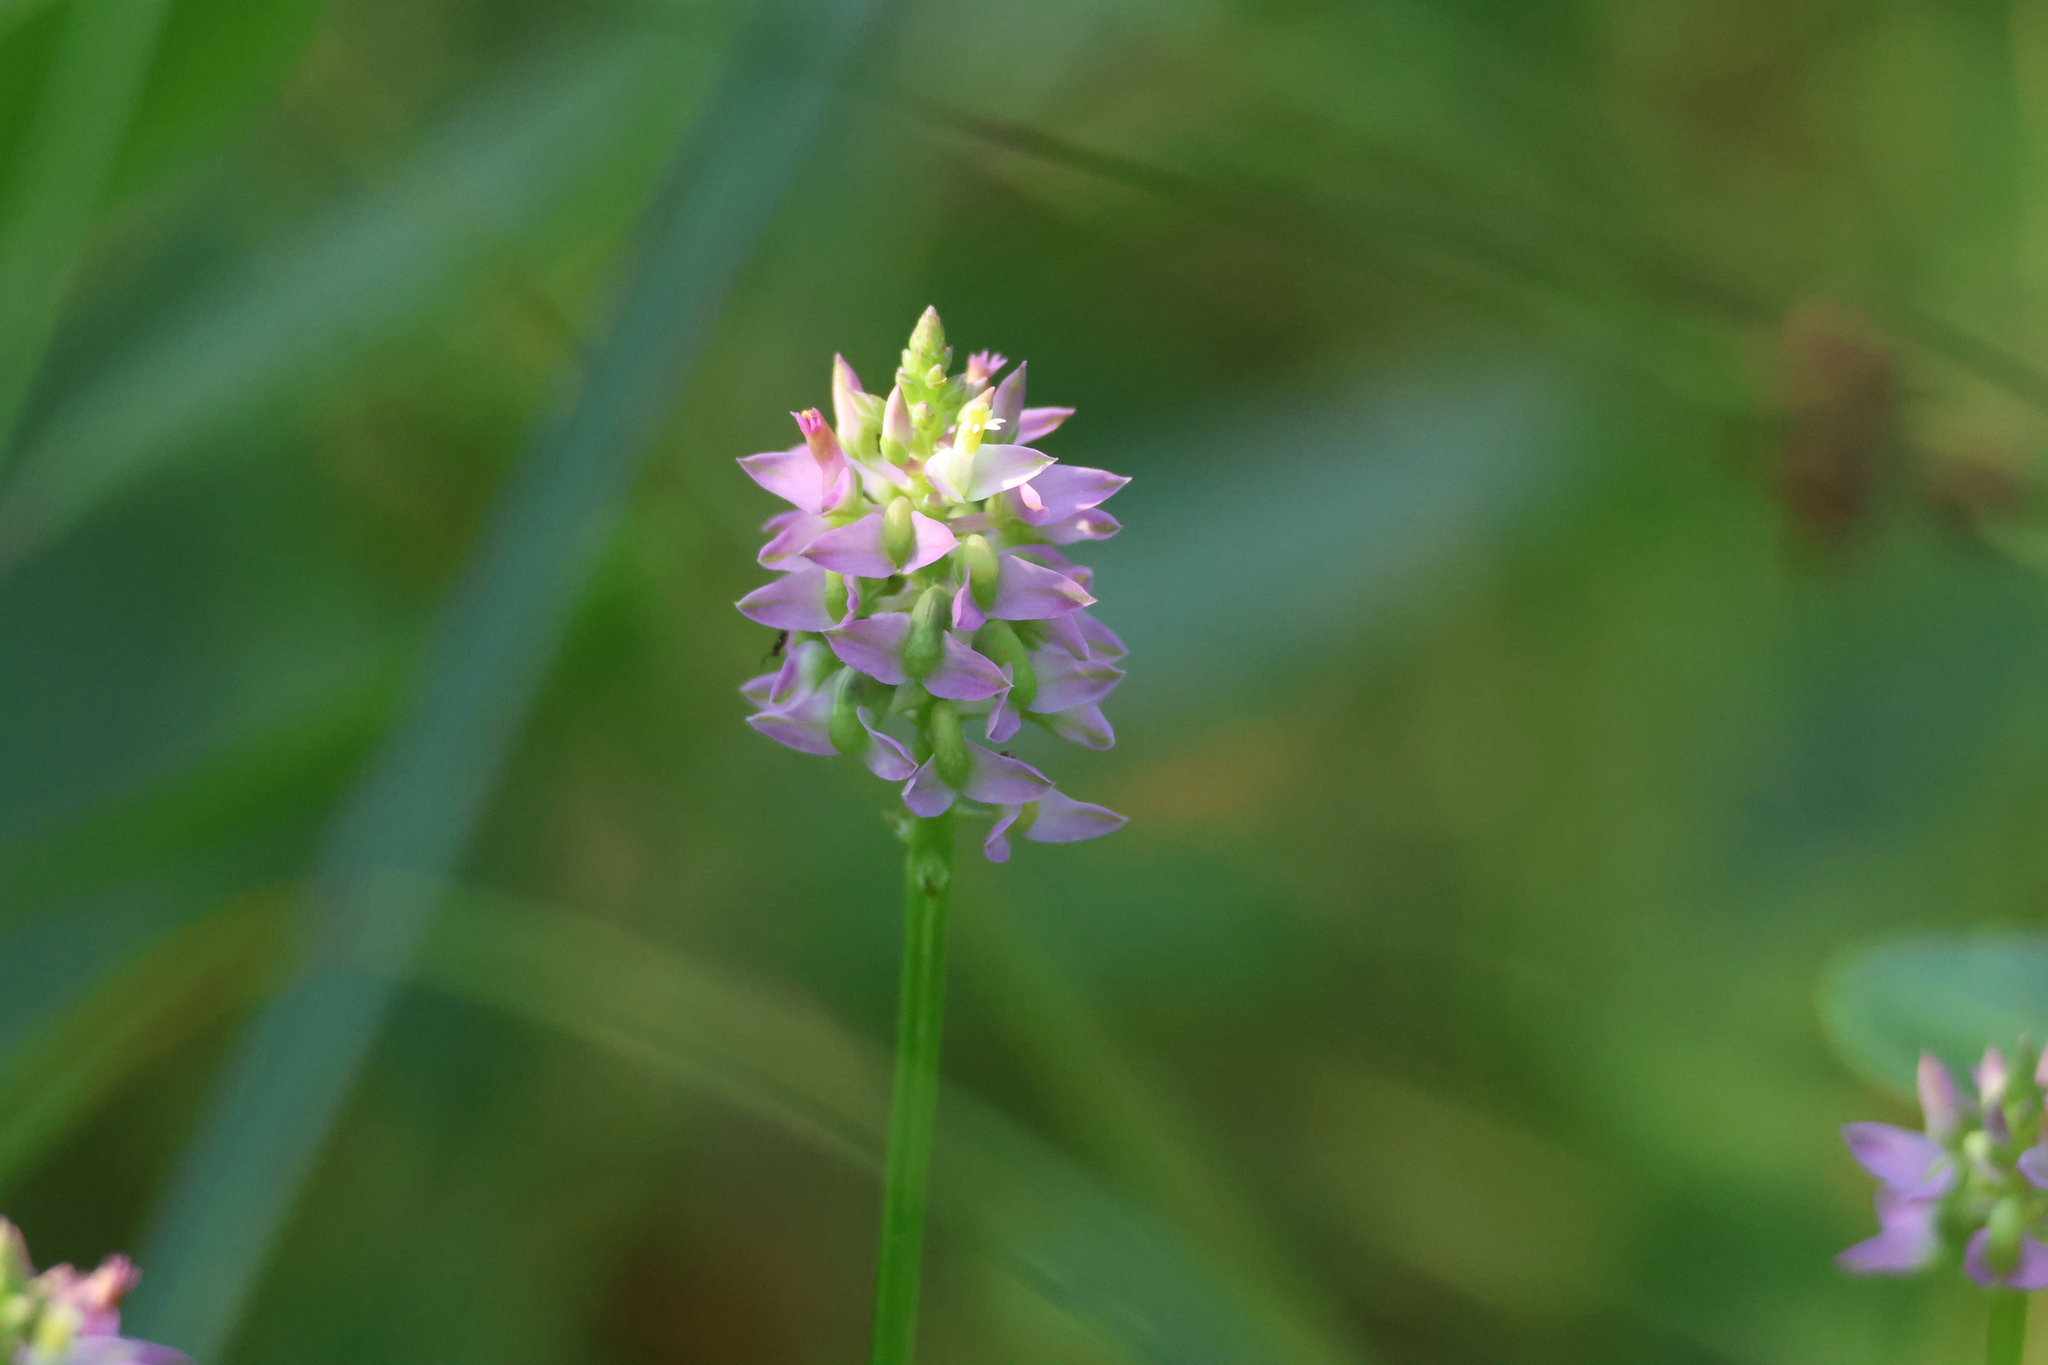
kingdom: Plantae
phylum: Tracheophyta
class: Magnoliopsida
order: Fabales
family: Polygalaceae
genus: Polygala
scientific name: Polygala brevifolia
